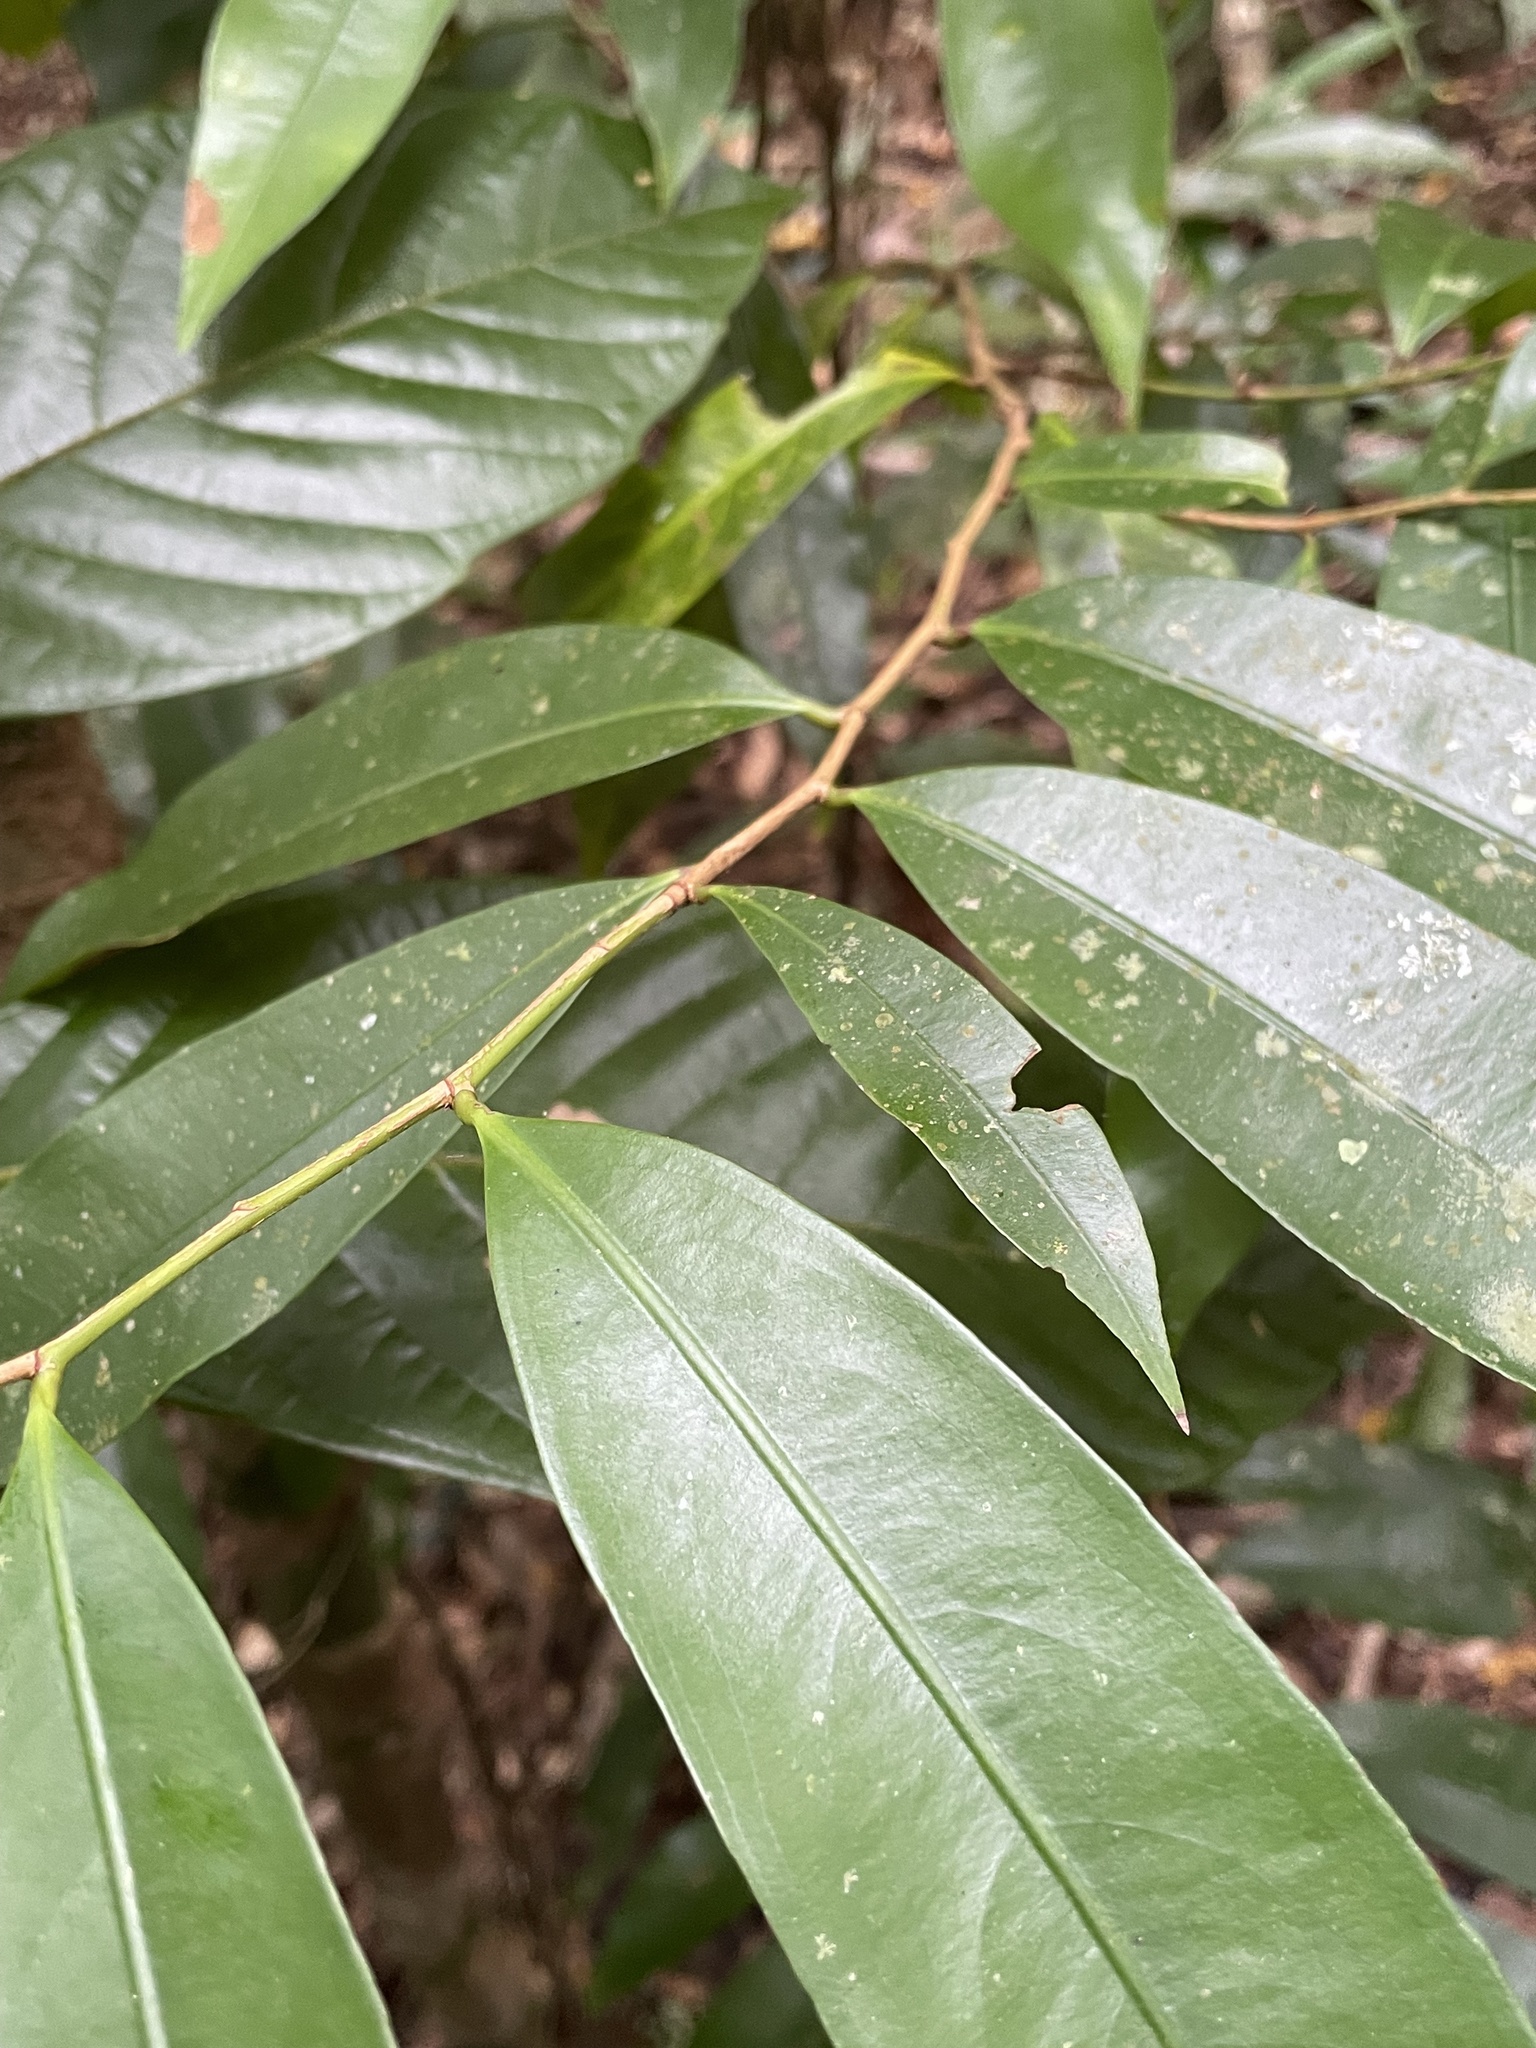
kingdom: Plantae
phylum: Tracheophyta
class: Magnoliopsida
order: Malpighiales
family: Ochnaceae
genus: Ouratea
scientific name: Ouratea lucens
